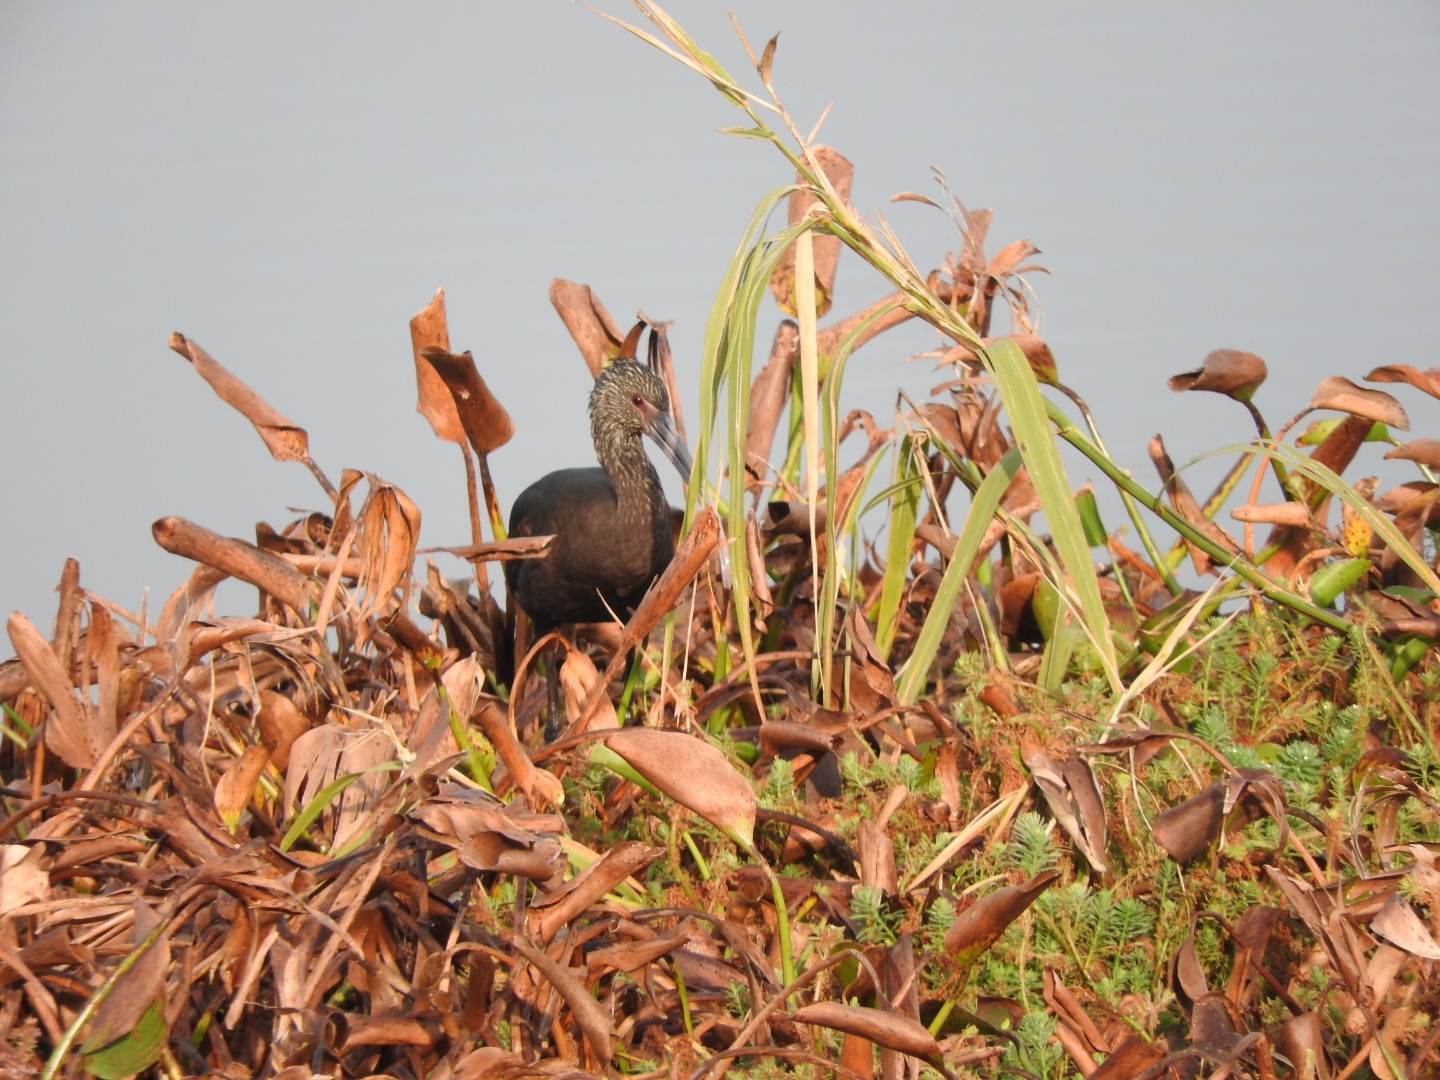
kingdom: Animalia
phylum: Chordata
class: Aves
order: Pelecaniformes
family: Threskiornithidae
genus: Plegadis
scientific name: Plegadis chihi
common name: White-faced ibis
